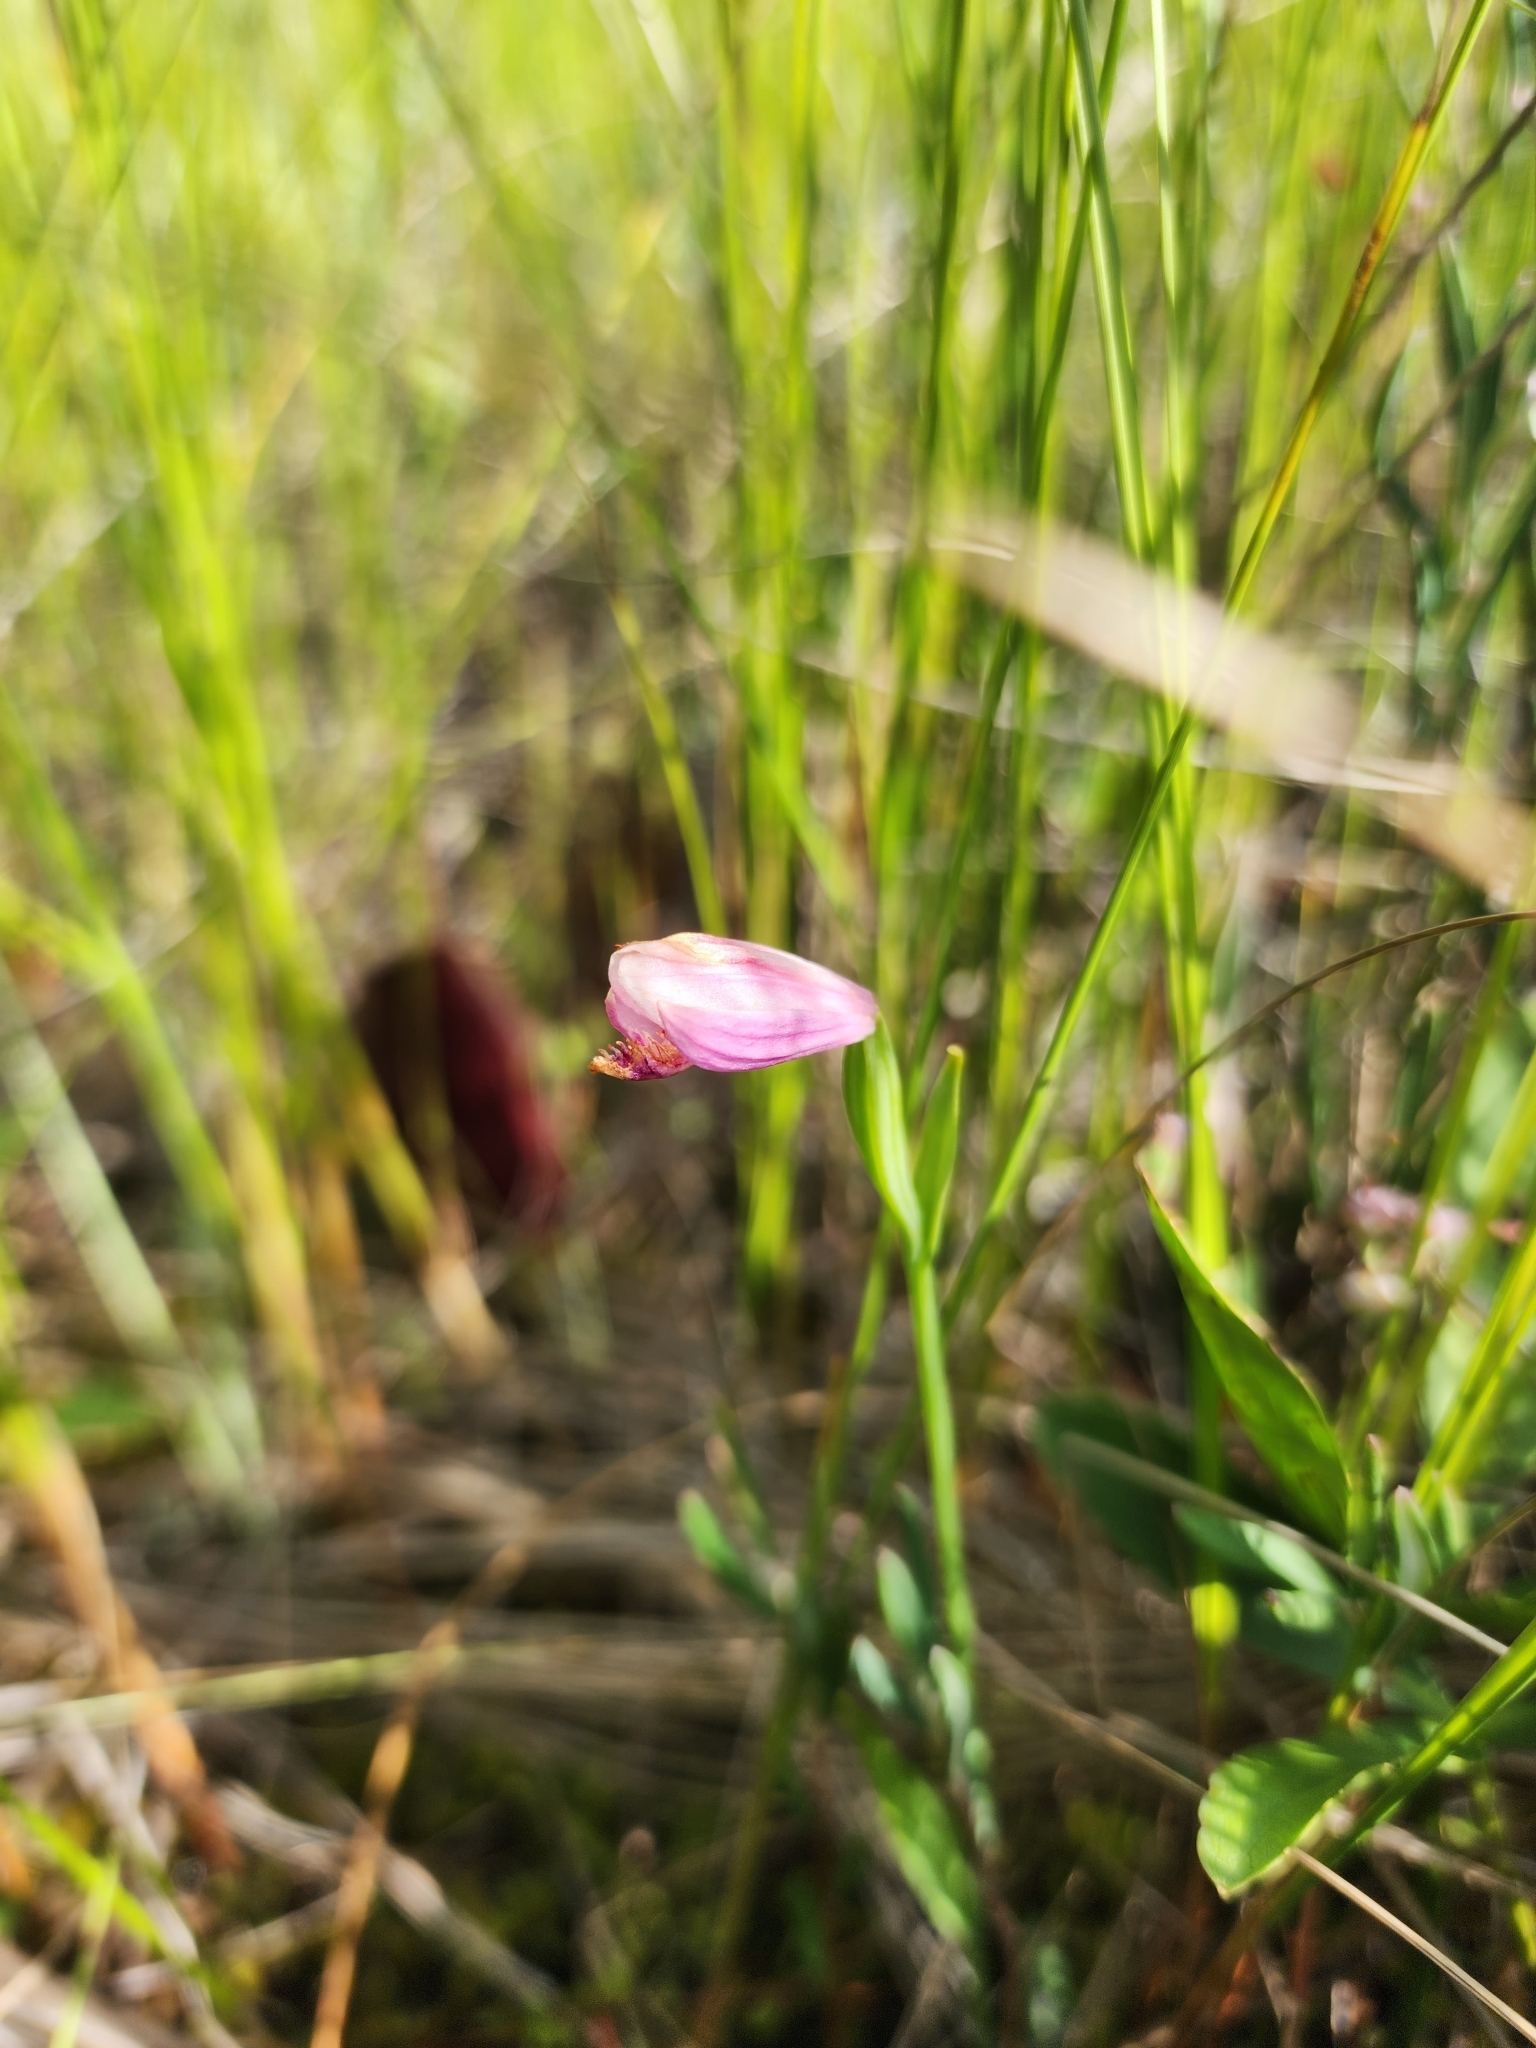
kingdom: Plantae
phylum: Tracheophyta
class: Liliopsida
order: Asparagales
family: Orchidaceae
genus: Pogonia
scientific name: Pogonia ophioglossoides
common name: Rose pogonia
